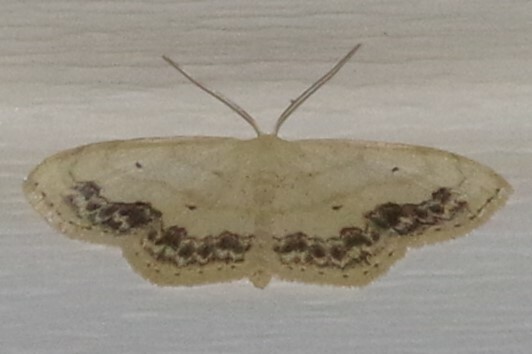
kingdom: Animalia
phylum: Arthropoda
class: Insecta
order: Lepidoptera
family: Geometridae
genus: Scopula
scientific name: Scopula limboundata
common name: Large lace border
